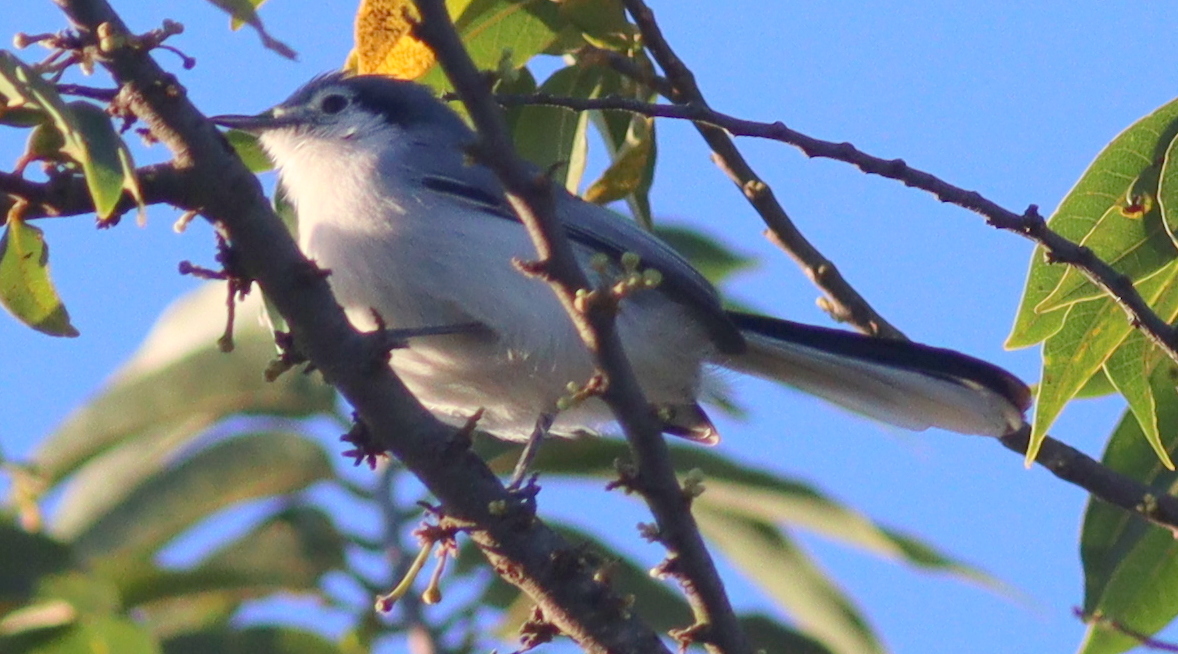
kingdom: Animalia
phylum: Chordata
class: Aves
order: Passeriformes
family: Polioptilidae
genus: Polioptila
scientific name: Polioptila dumicola
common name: Masked gnatcatcher
